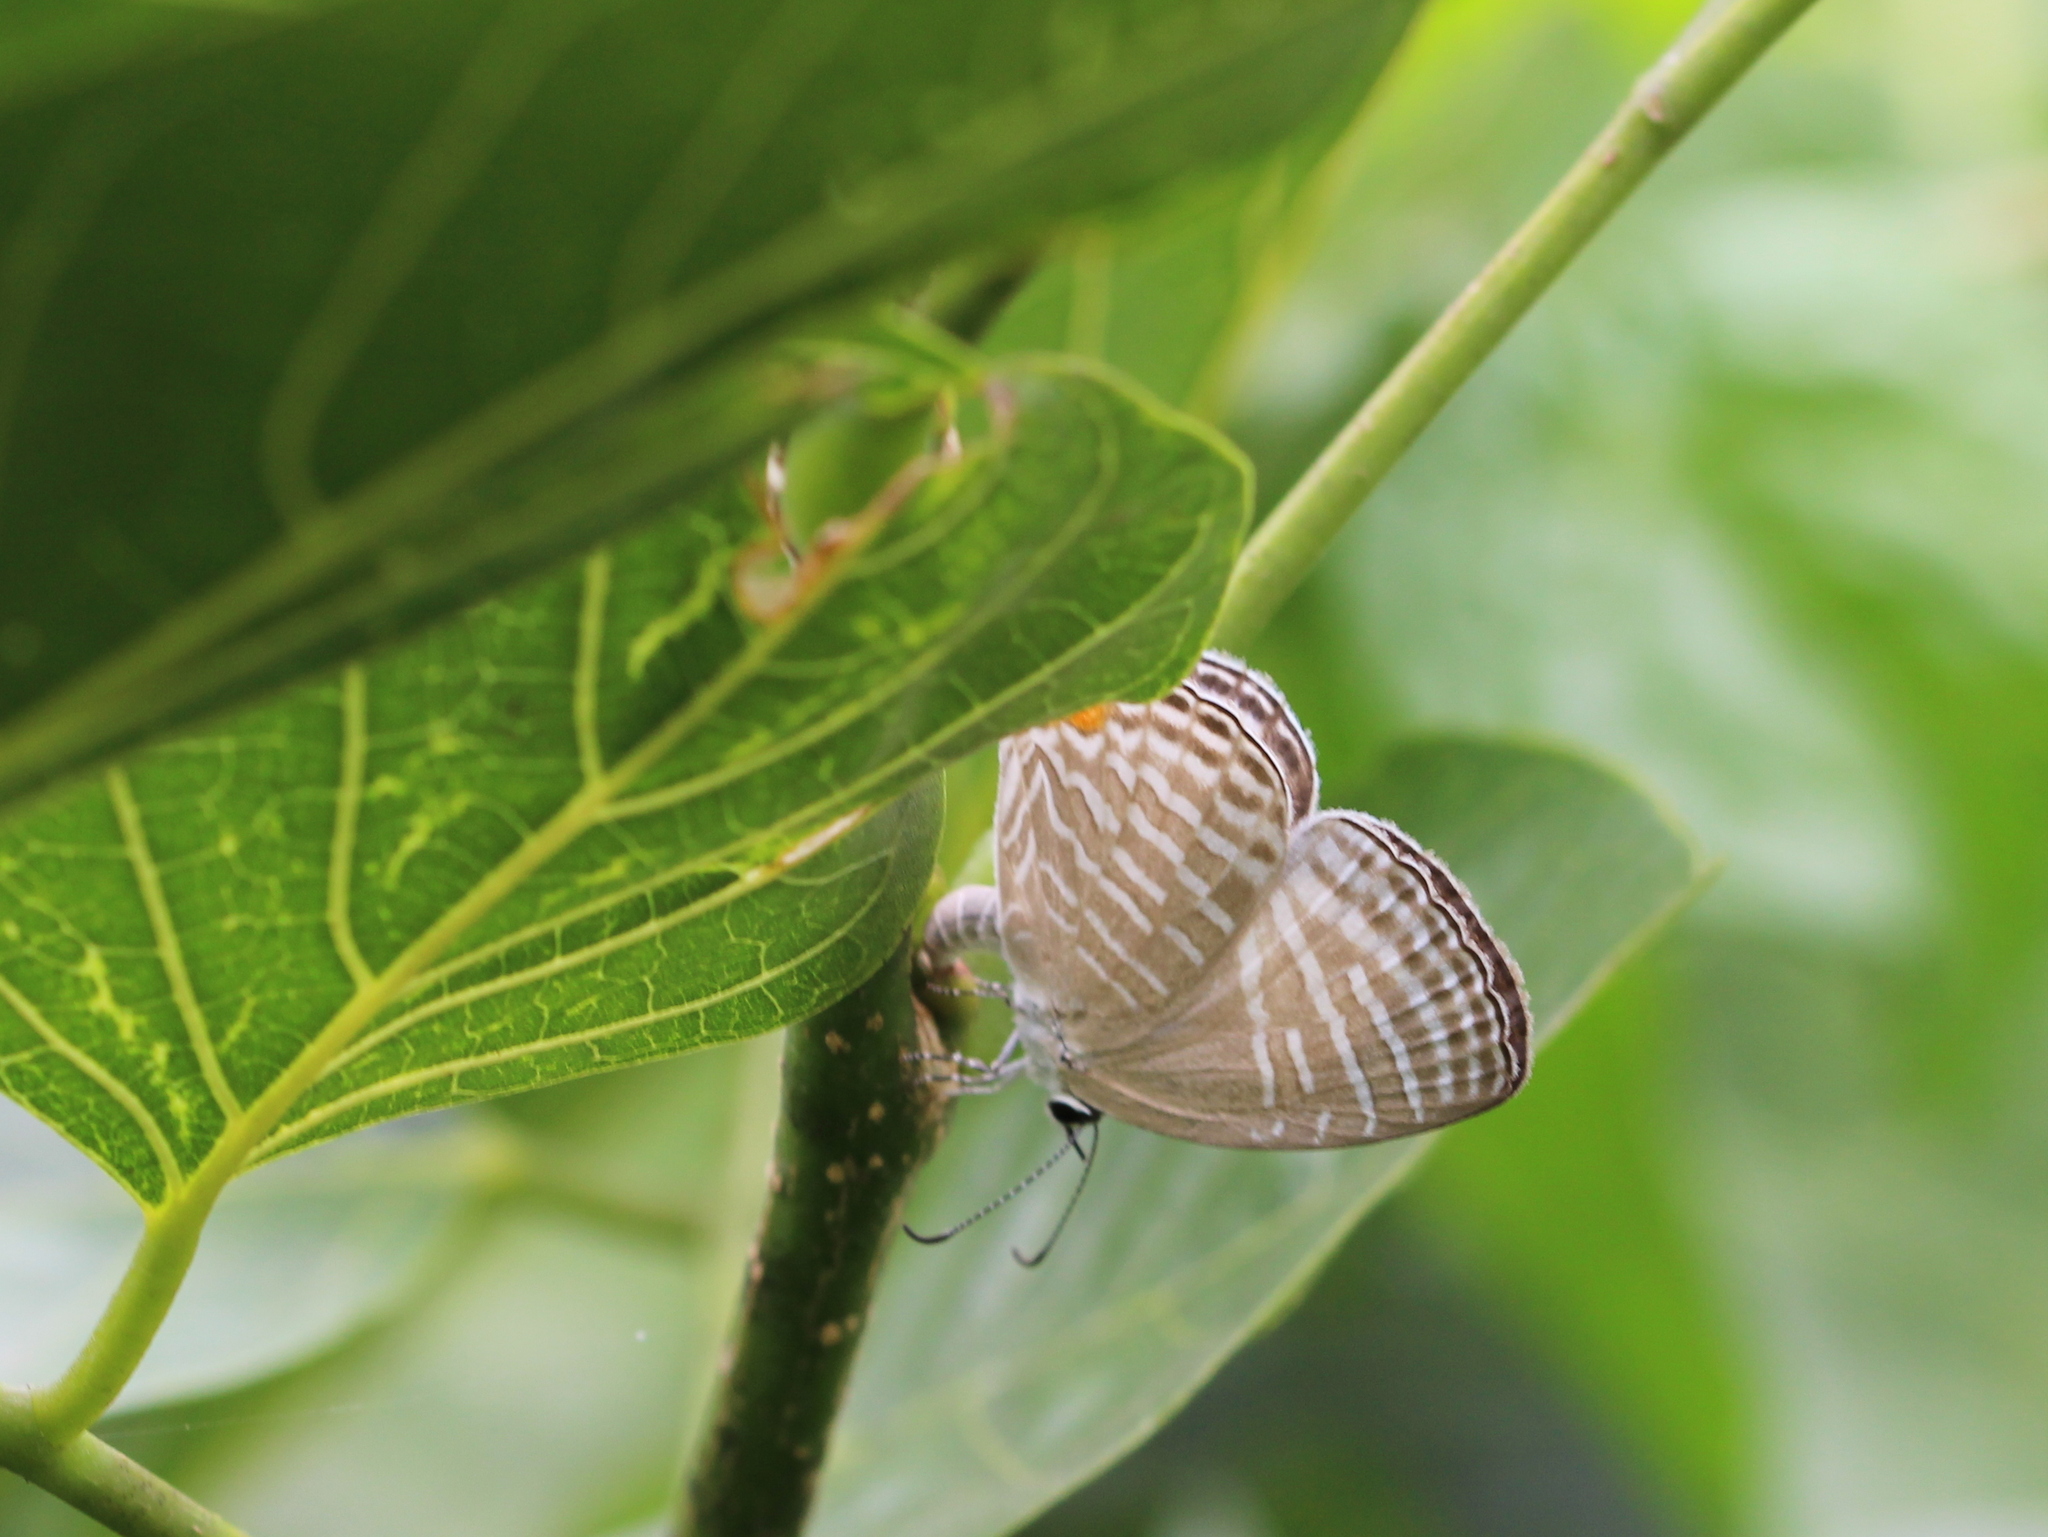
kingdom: Animalia
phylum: Arthropoda
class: Insecta
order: Lepidoptera
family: Lycaenidae
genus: Jamides
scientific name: Jamides celeno
